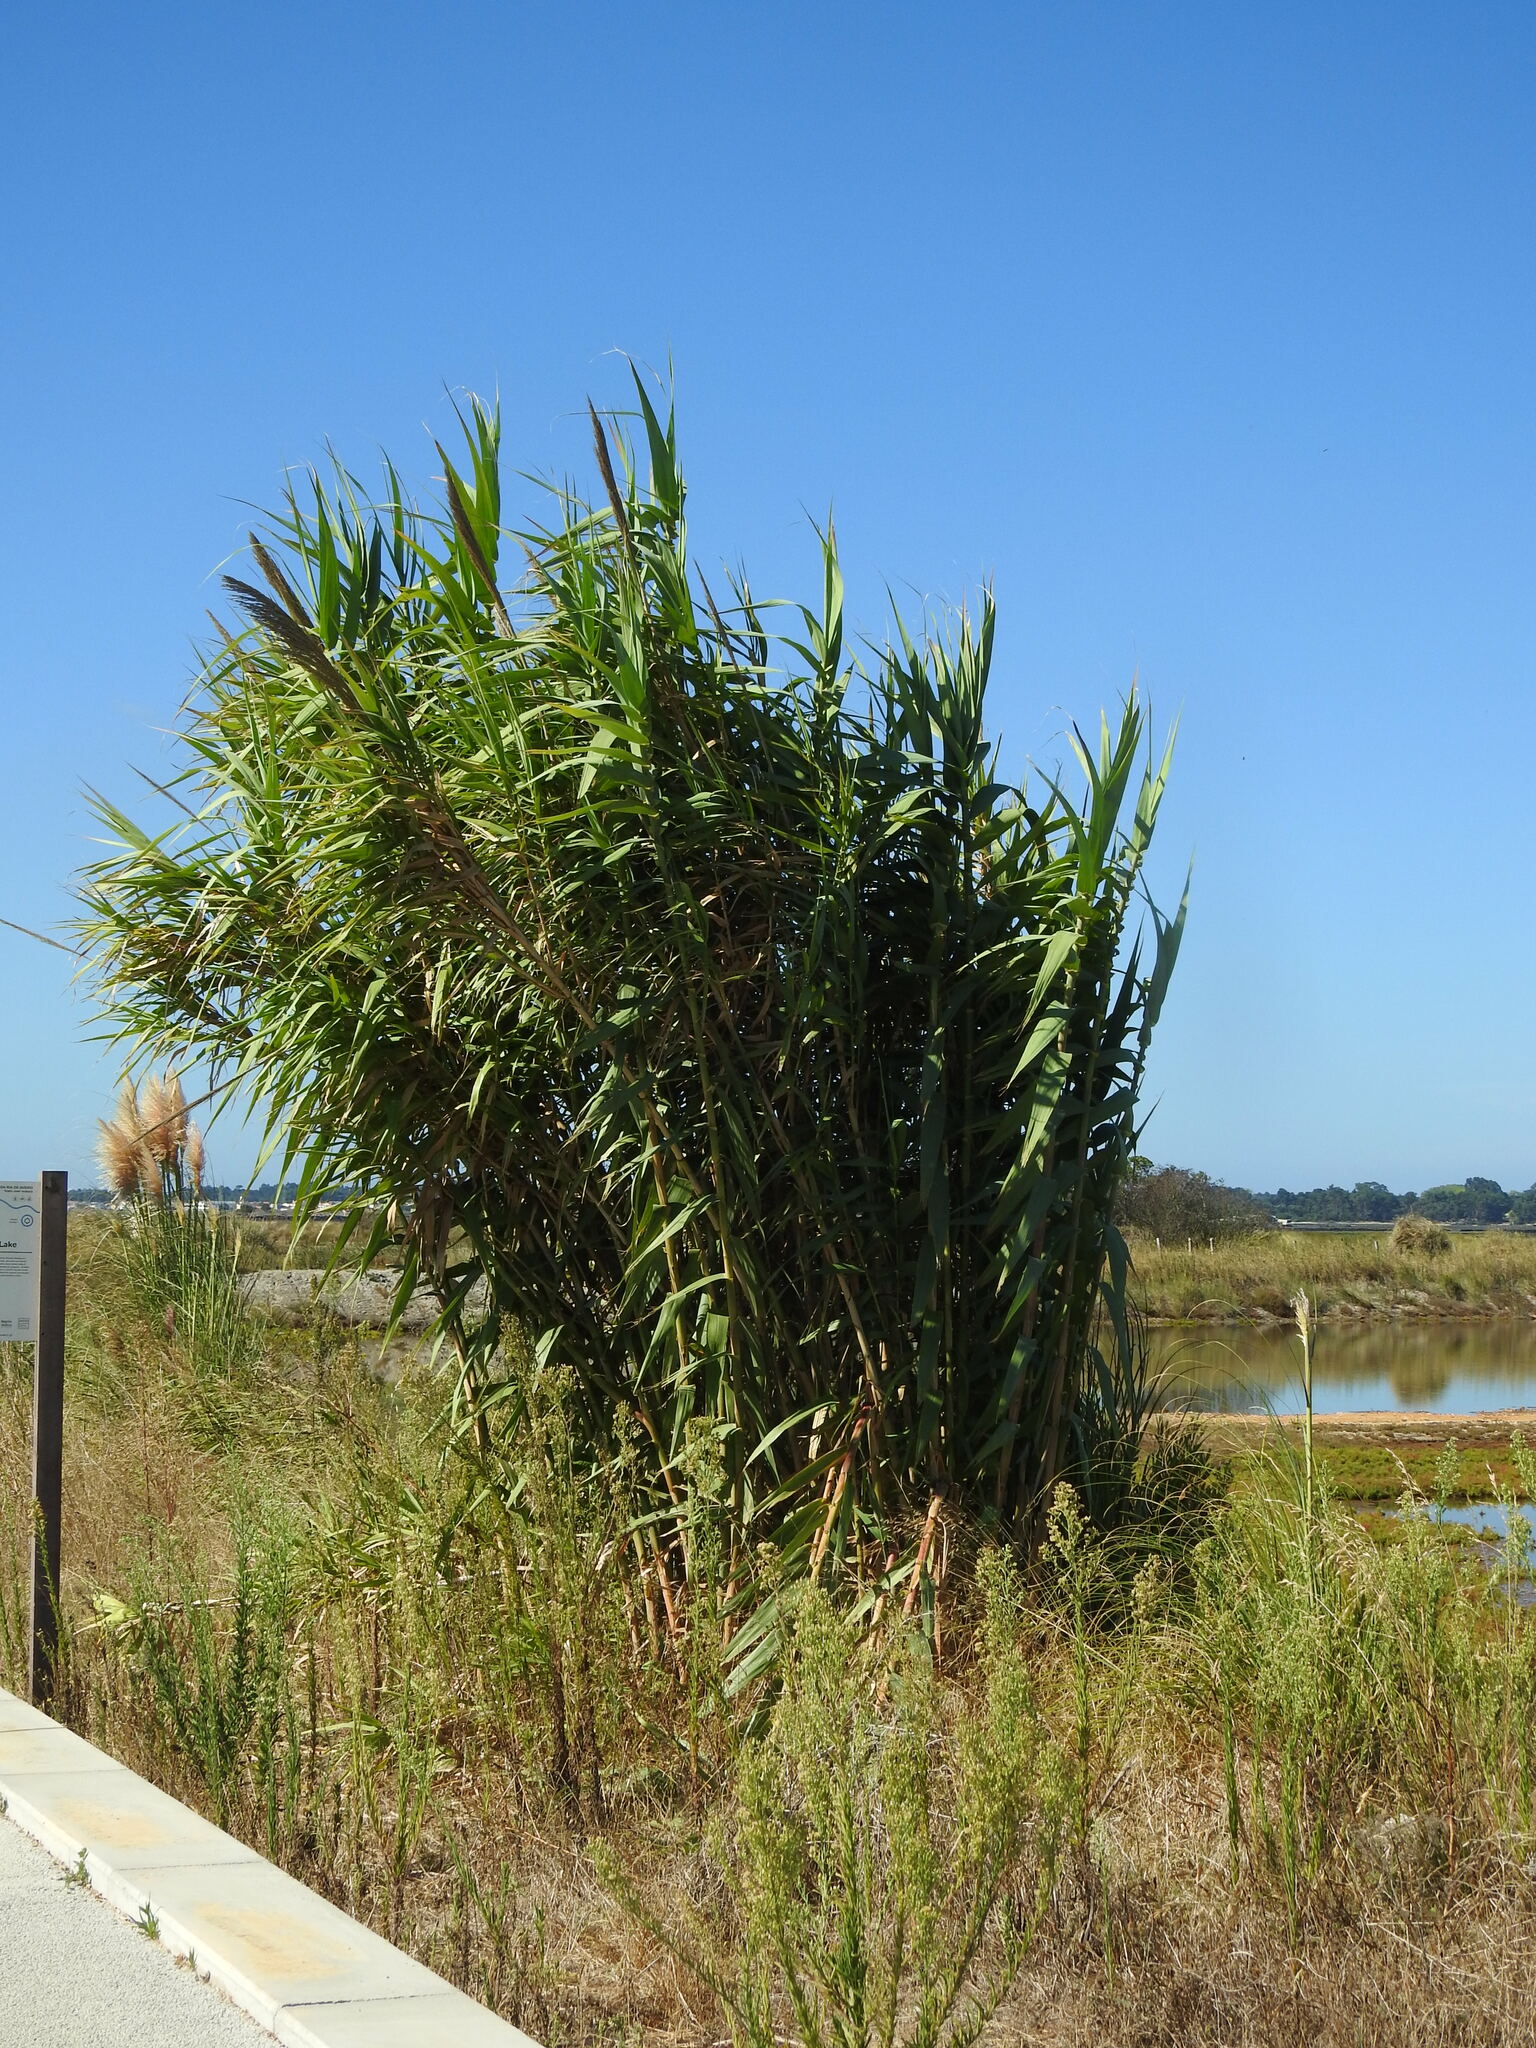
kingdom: Plantae
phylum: Tracheophyta
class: Liliopsida
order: Poales
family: Poaceae
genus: Arundo
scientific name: Arundo donax
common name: Giant reed
